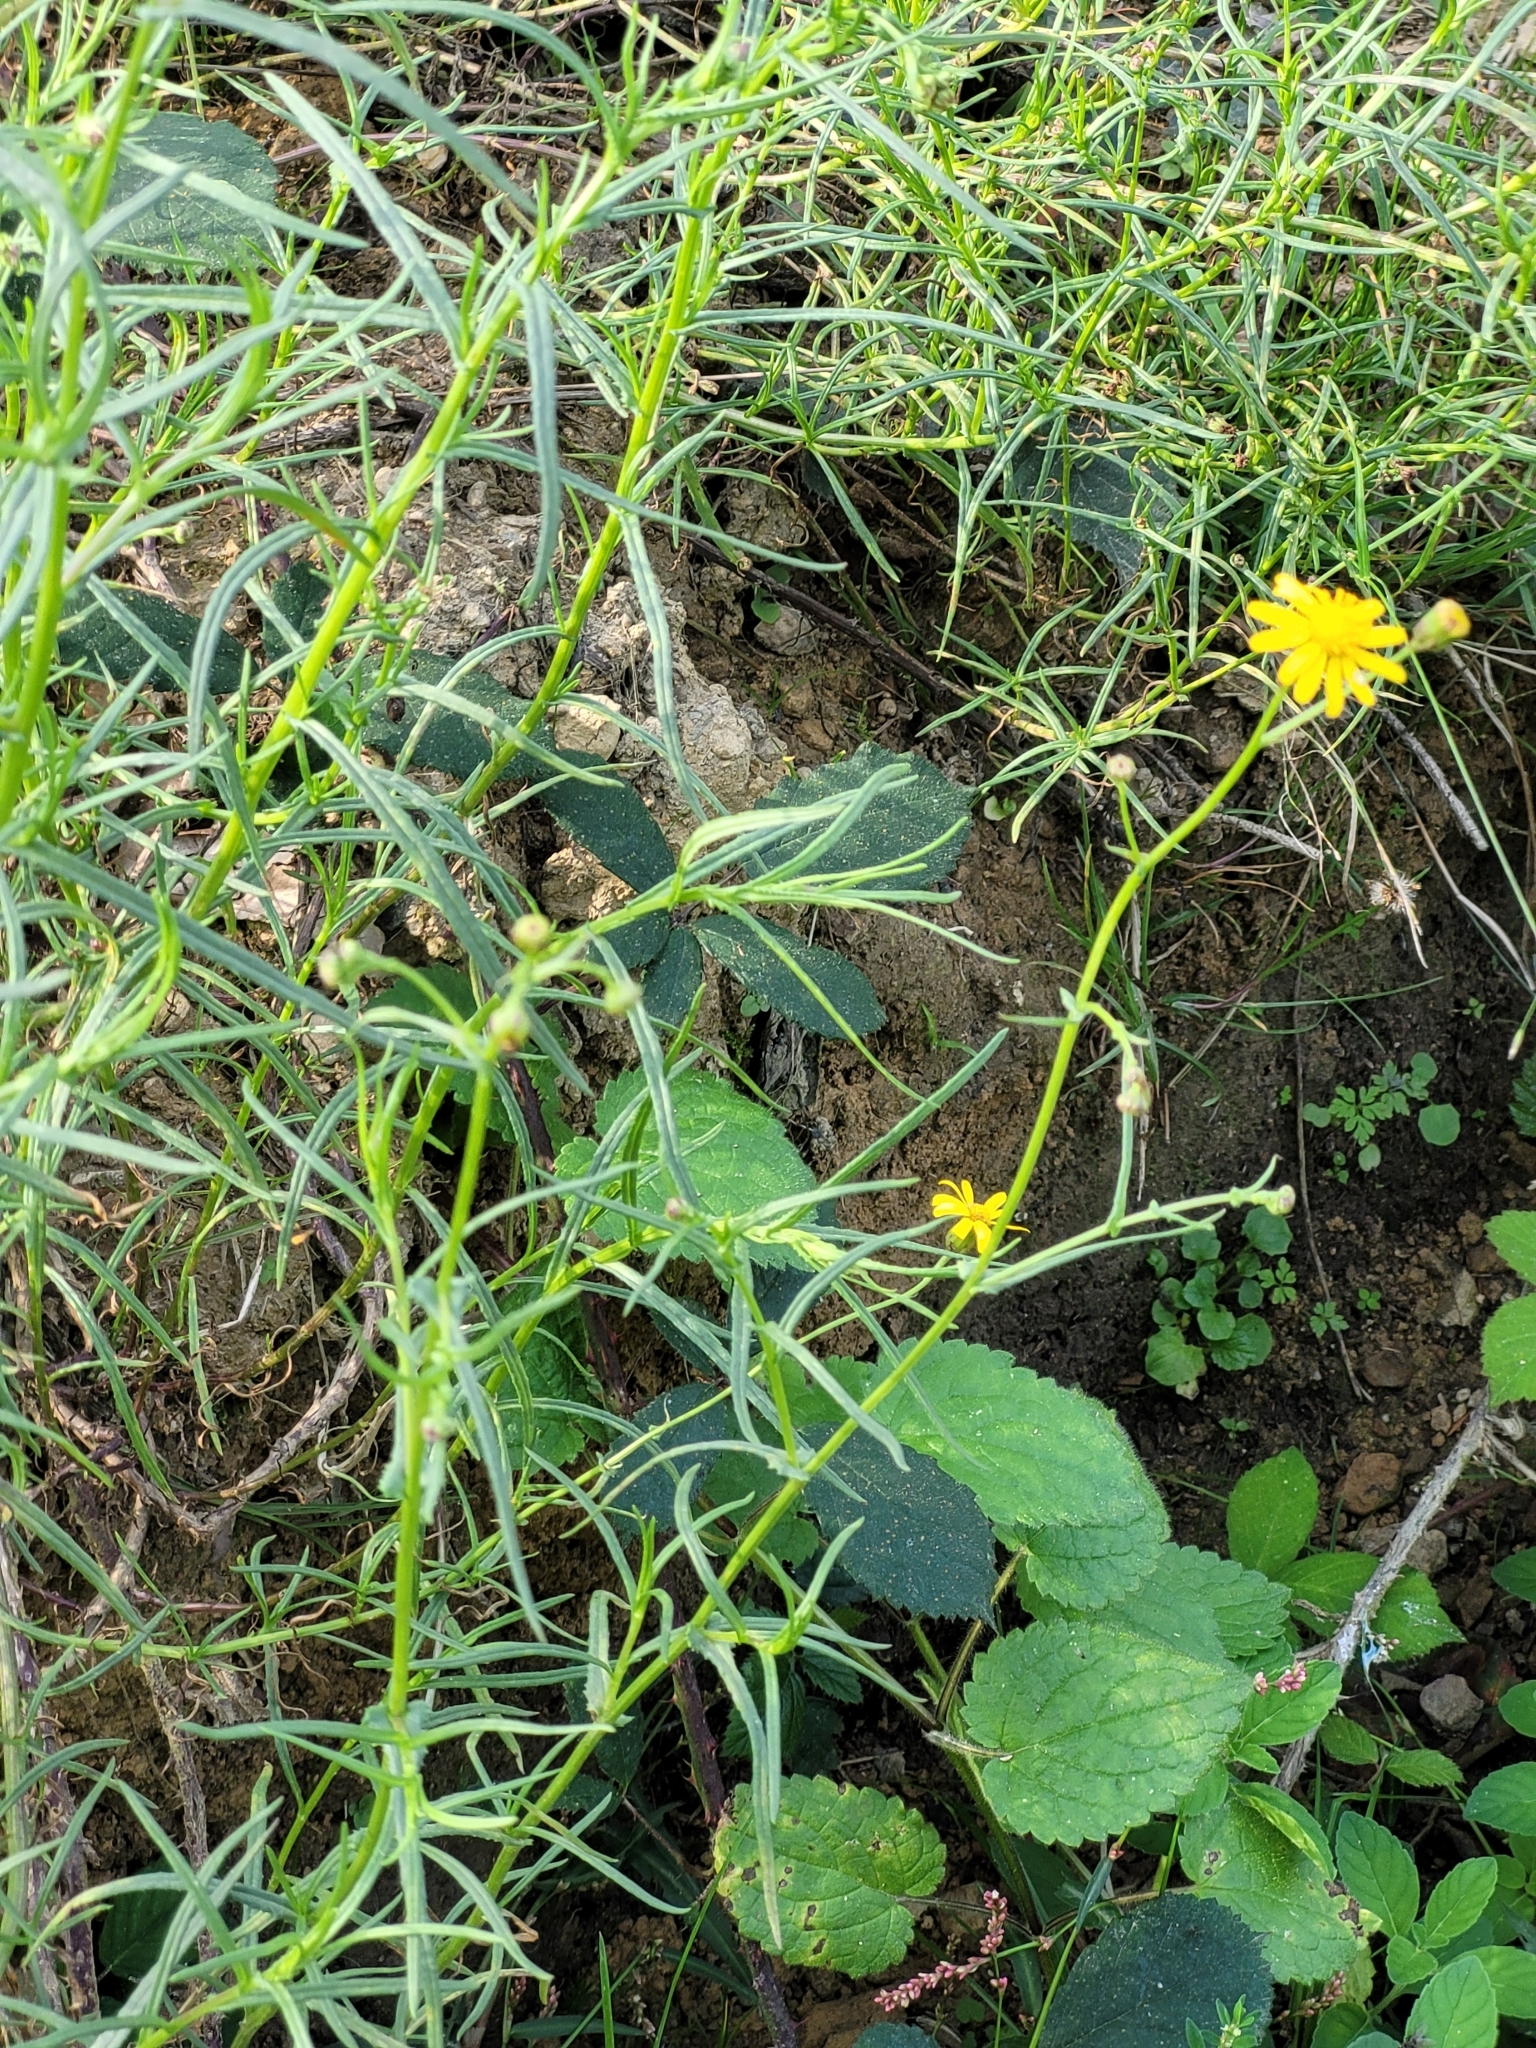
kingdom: Plantae
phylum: Tracheophyta
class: Magnoliopsida
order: Asterales
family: Asteraceae
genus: Senecio
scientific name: Senecio inaequidens
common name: Narrow-leaved ragwort
